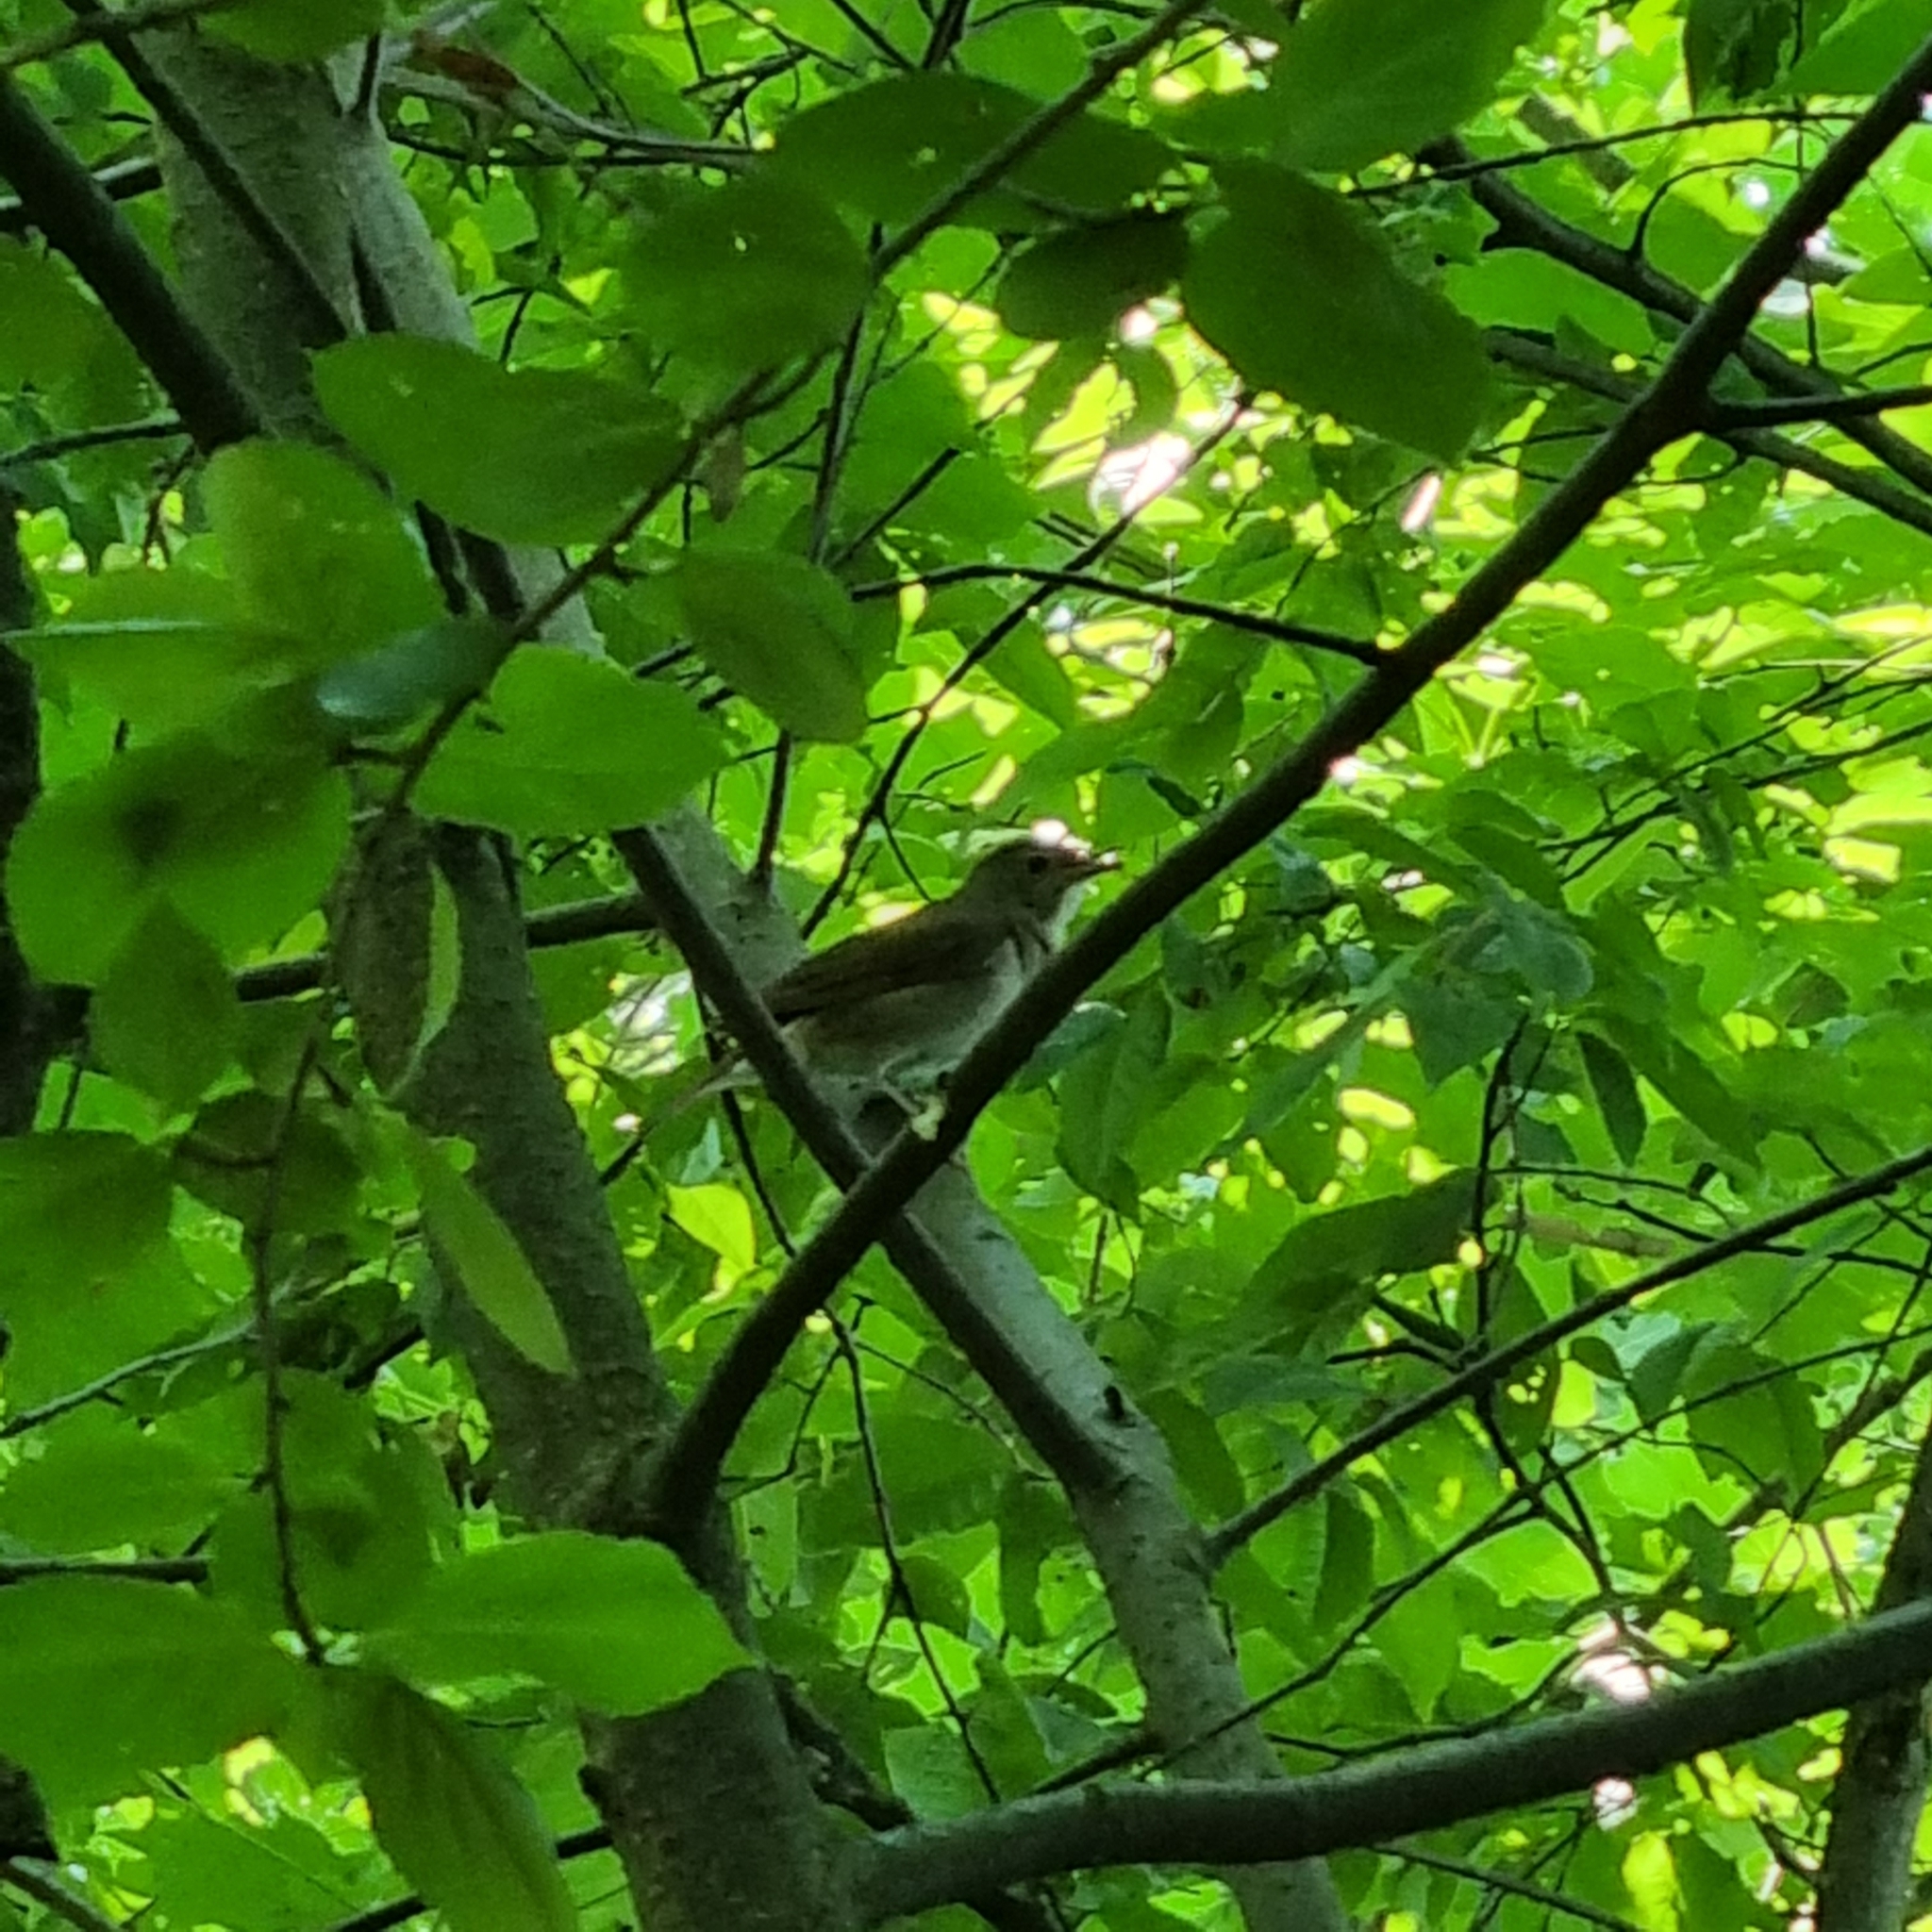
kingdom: Animalia
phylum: Chordata
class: Aves
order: Passeriformes
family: Muscicapidae
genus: Luscinia
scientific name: Luscinia luscinia
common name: Thrush nightingale
